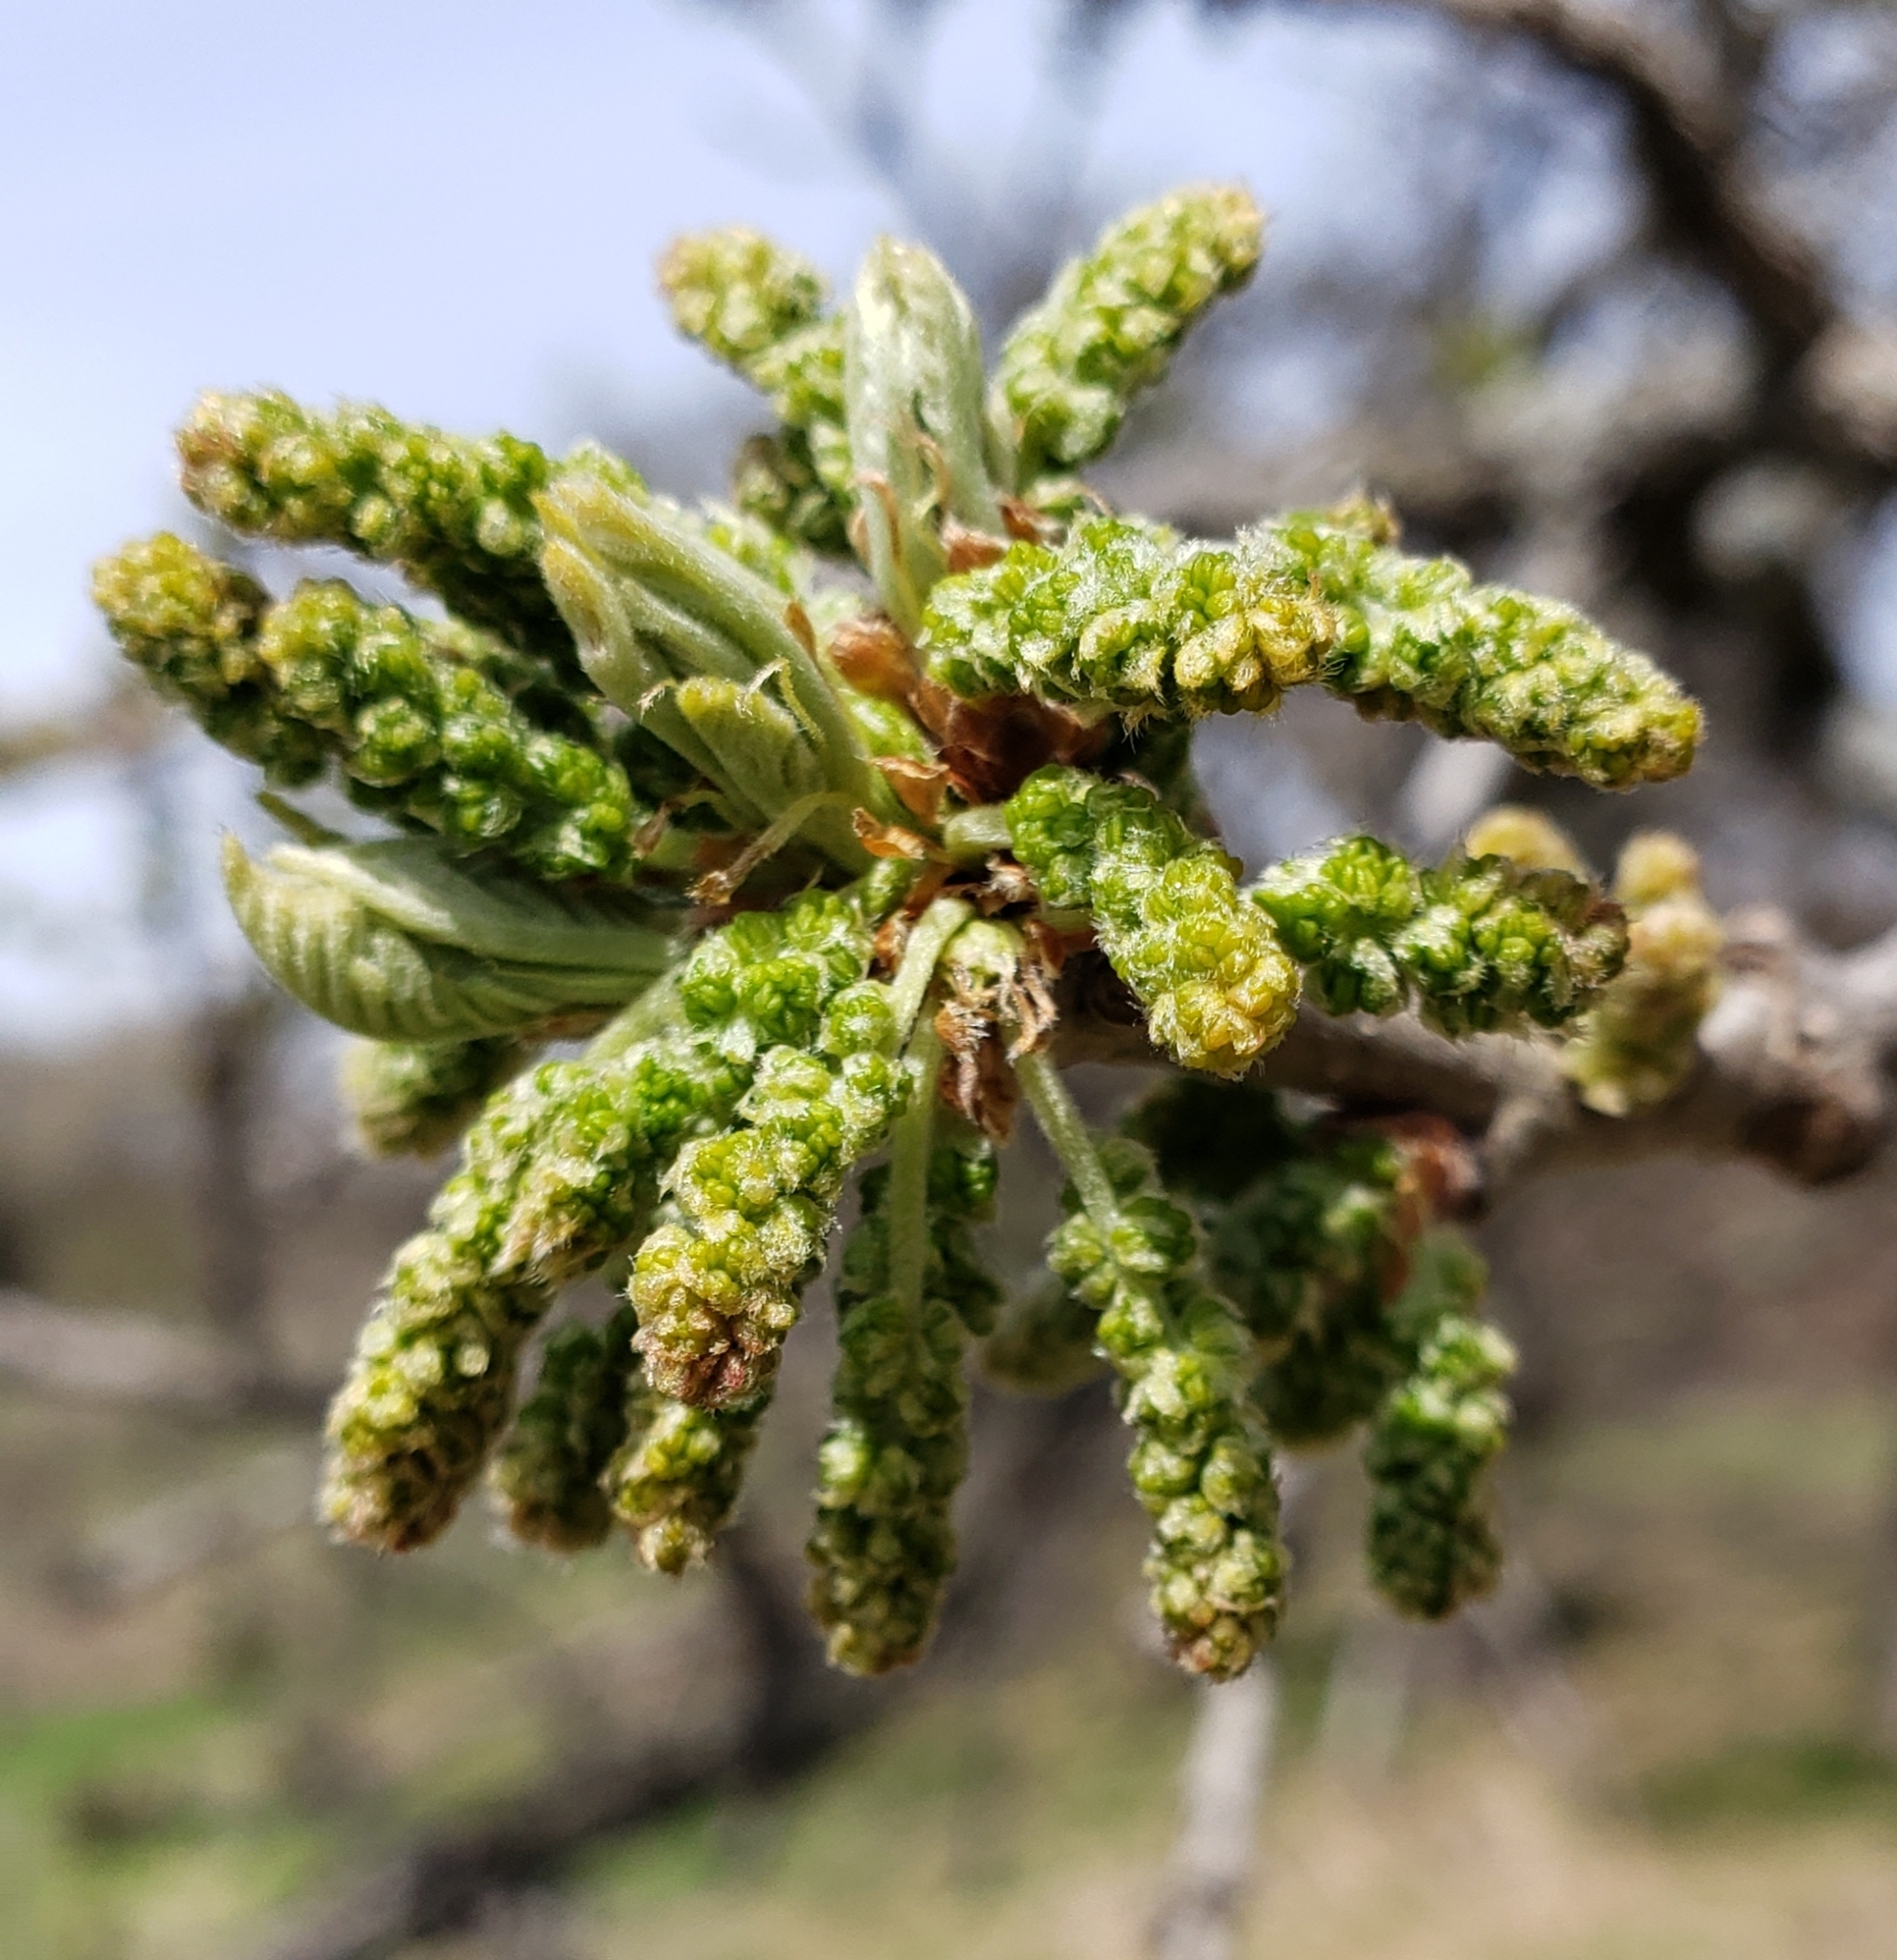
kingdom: Plantae
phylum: Tracheophyta
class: Magnoliopsida
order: Fagales
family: Fagaceae
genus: Quercus
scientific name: Quercus macrocarpa
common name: Bur oak
